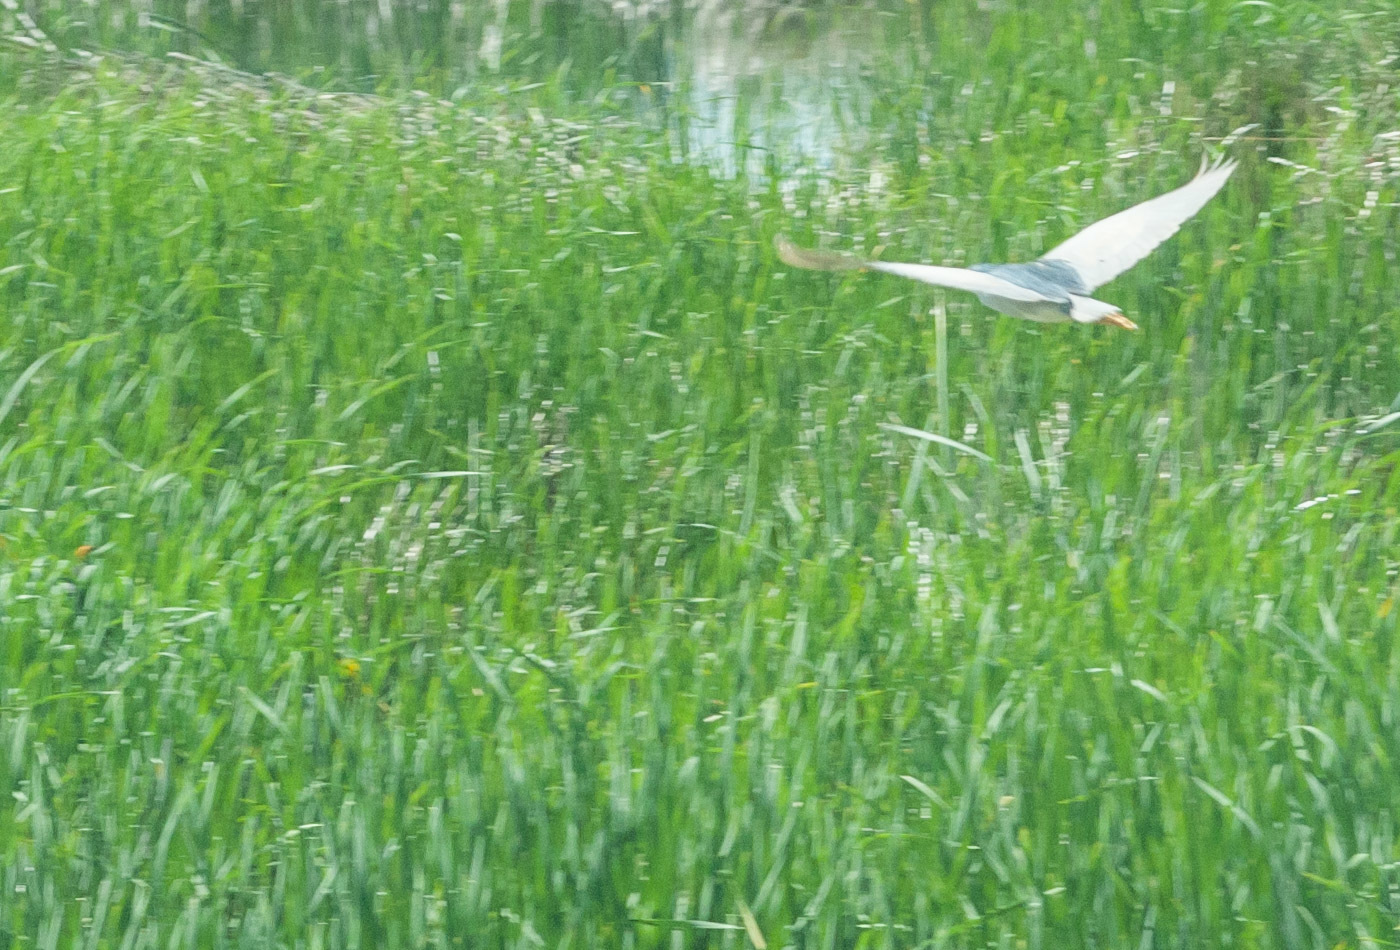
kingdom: Animalia
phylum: Chordata
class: Aves
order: Pelecaniformes
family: Ardeidae
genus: Nycticorax
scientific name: Nycticorax nycticorax
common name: Black-crowned night heron
